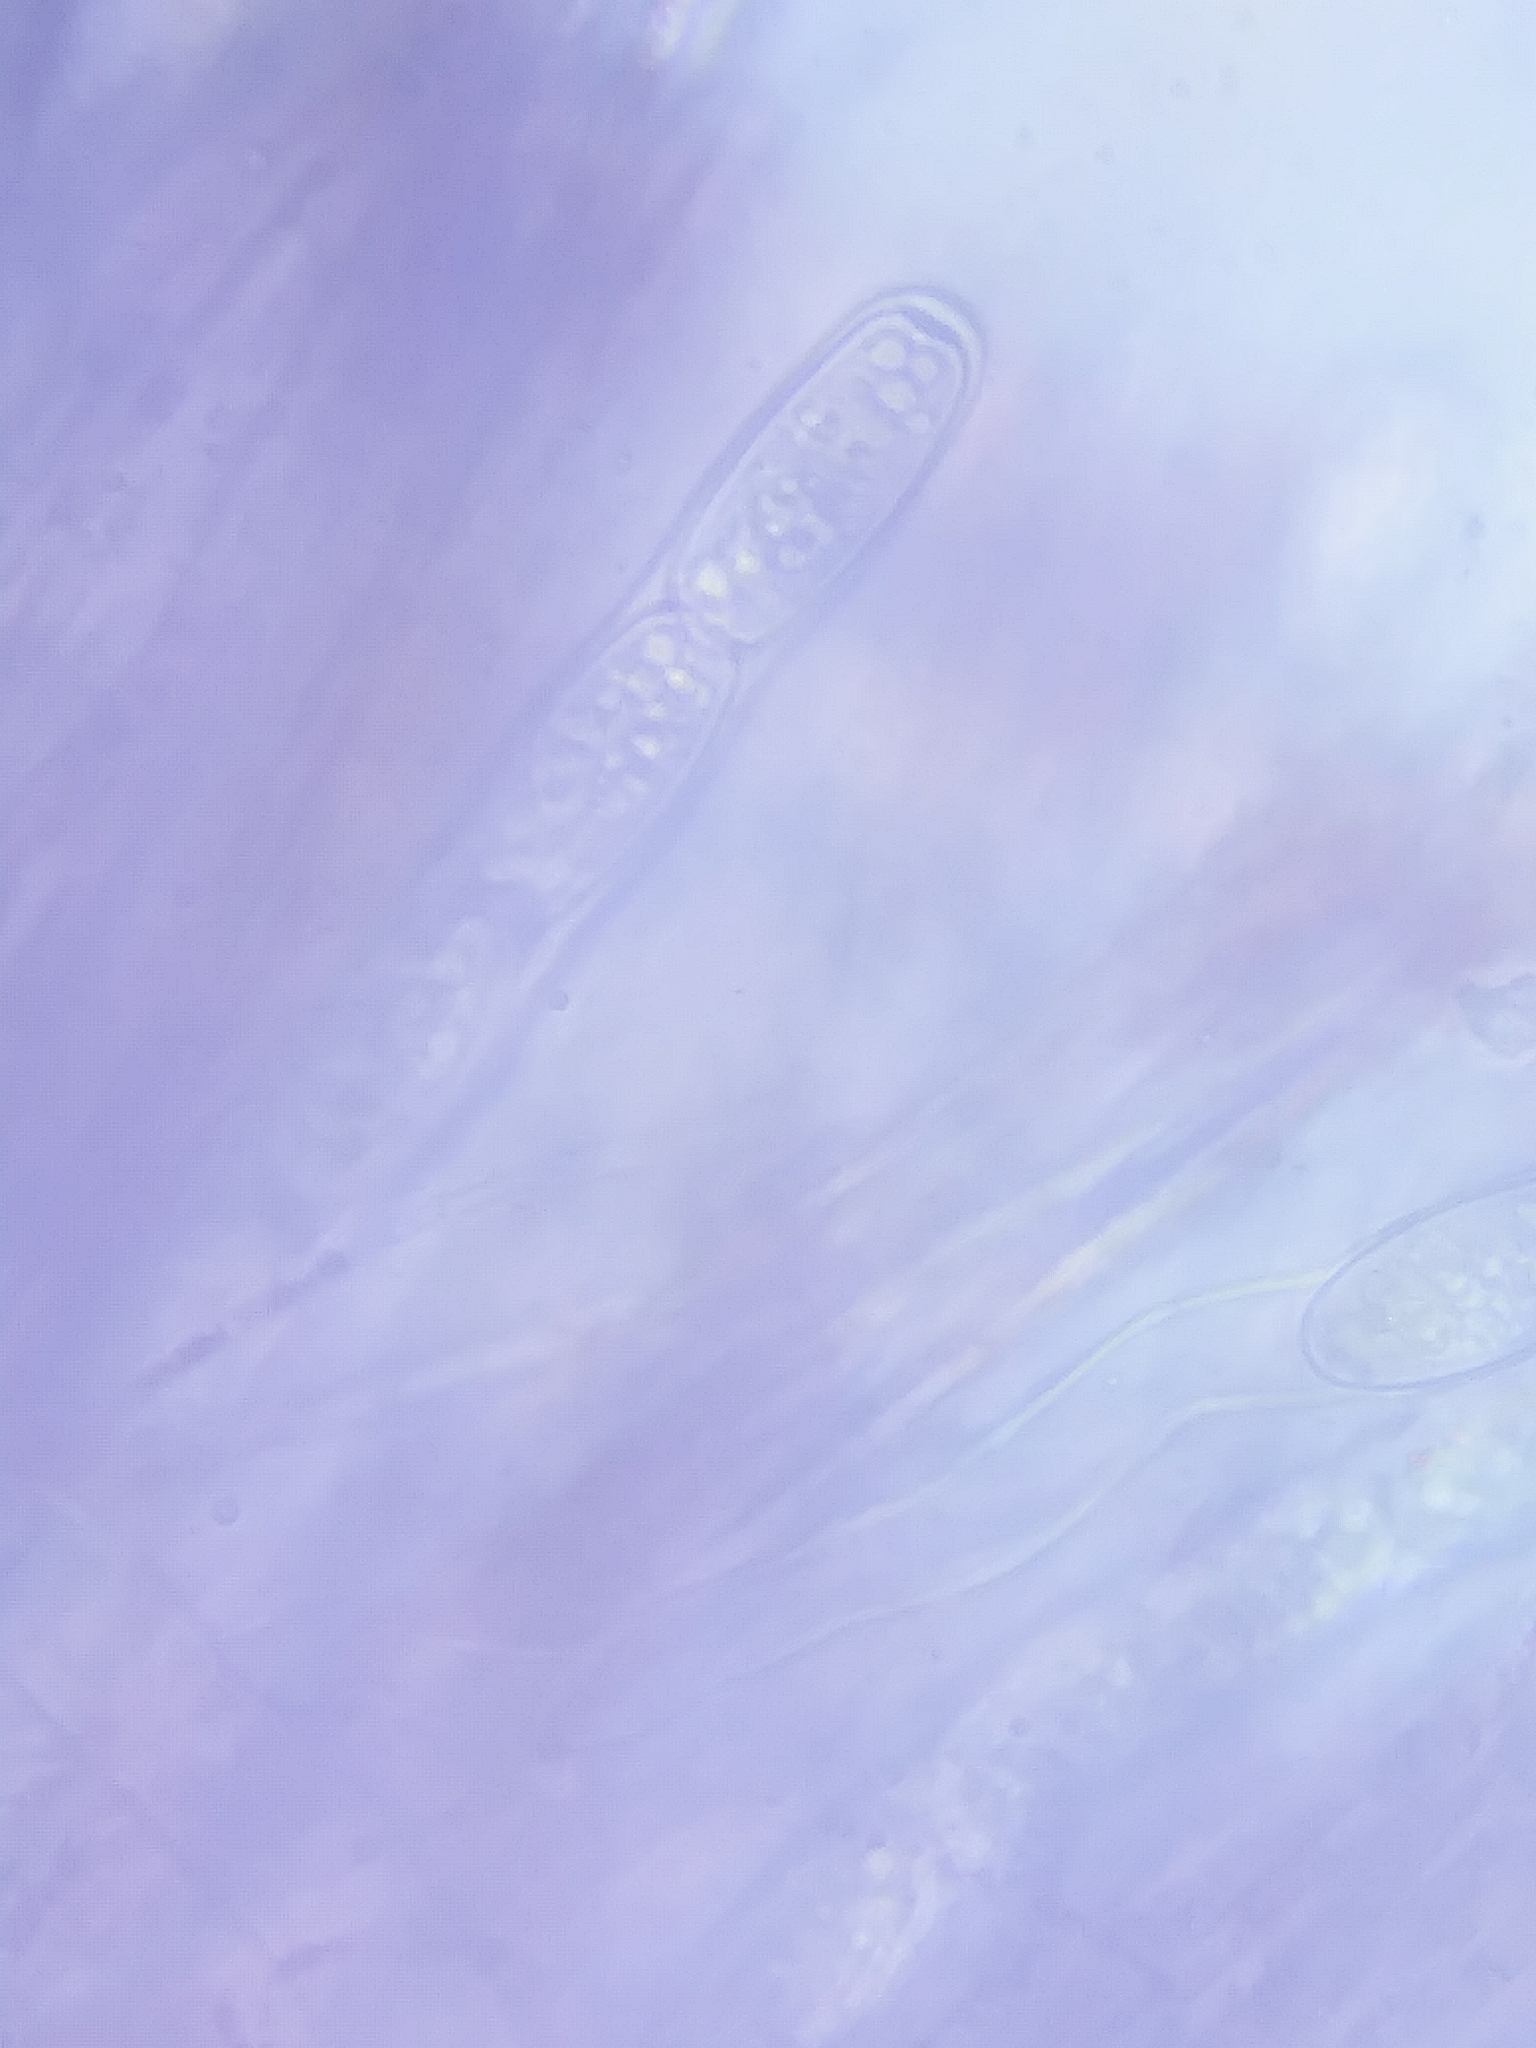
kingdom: Fungi
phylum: Ascomycota
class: Pezizomycetes
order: Pezizales
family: Sarcoscyphaceae
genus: Sarcoscypha
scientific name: Sarcoscypha austriaca
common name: Scarlet elfcup
